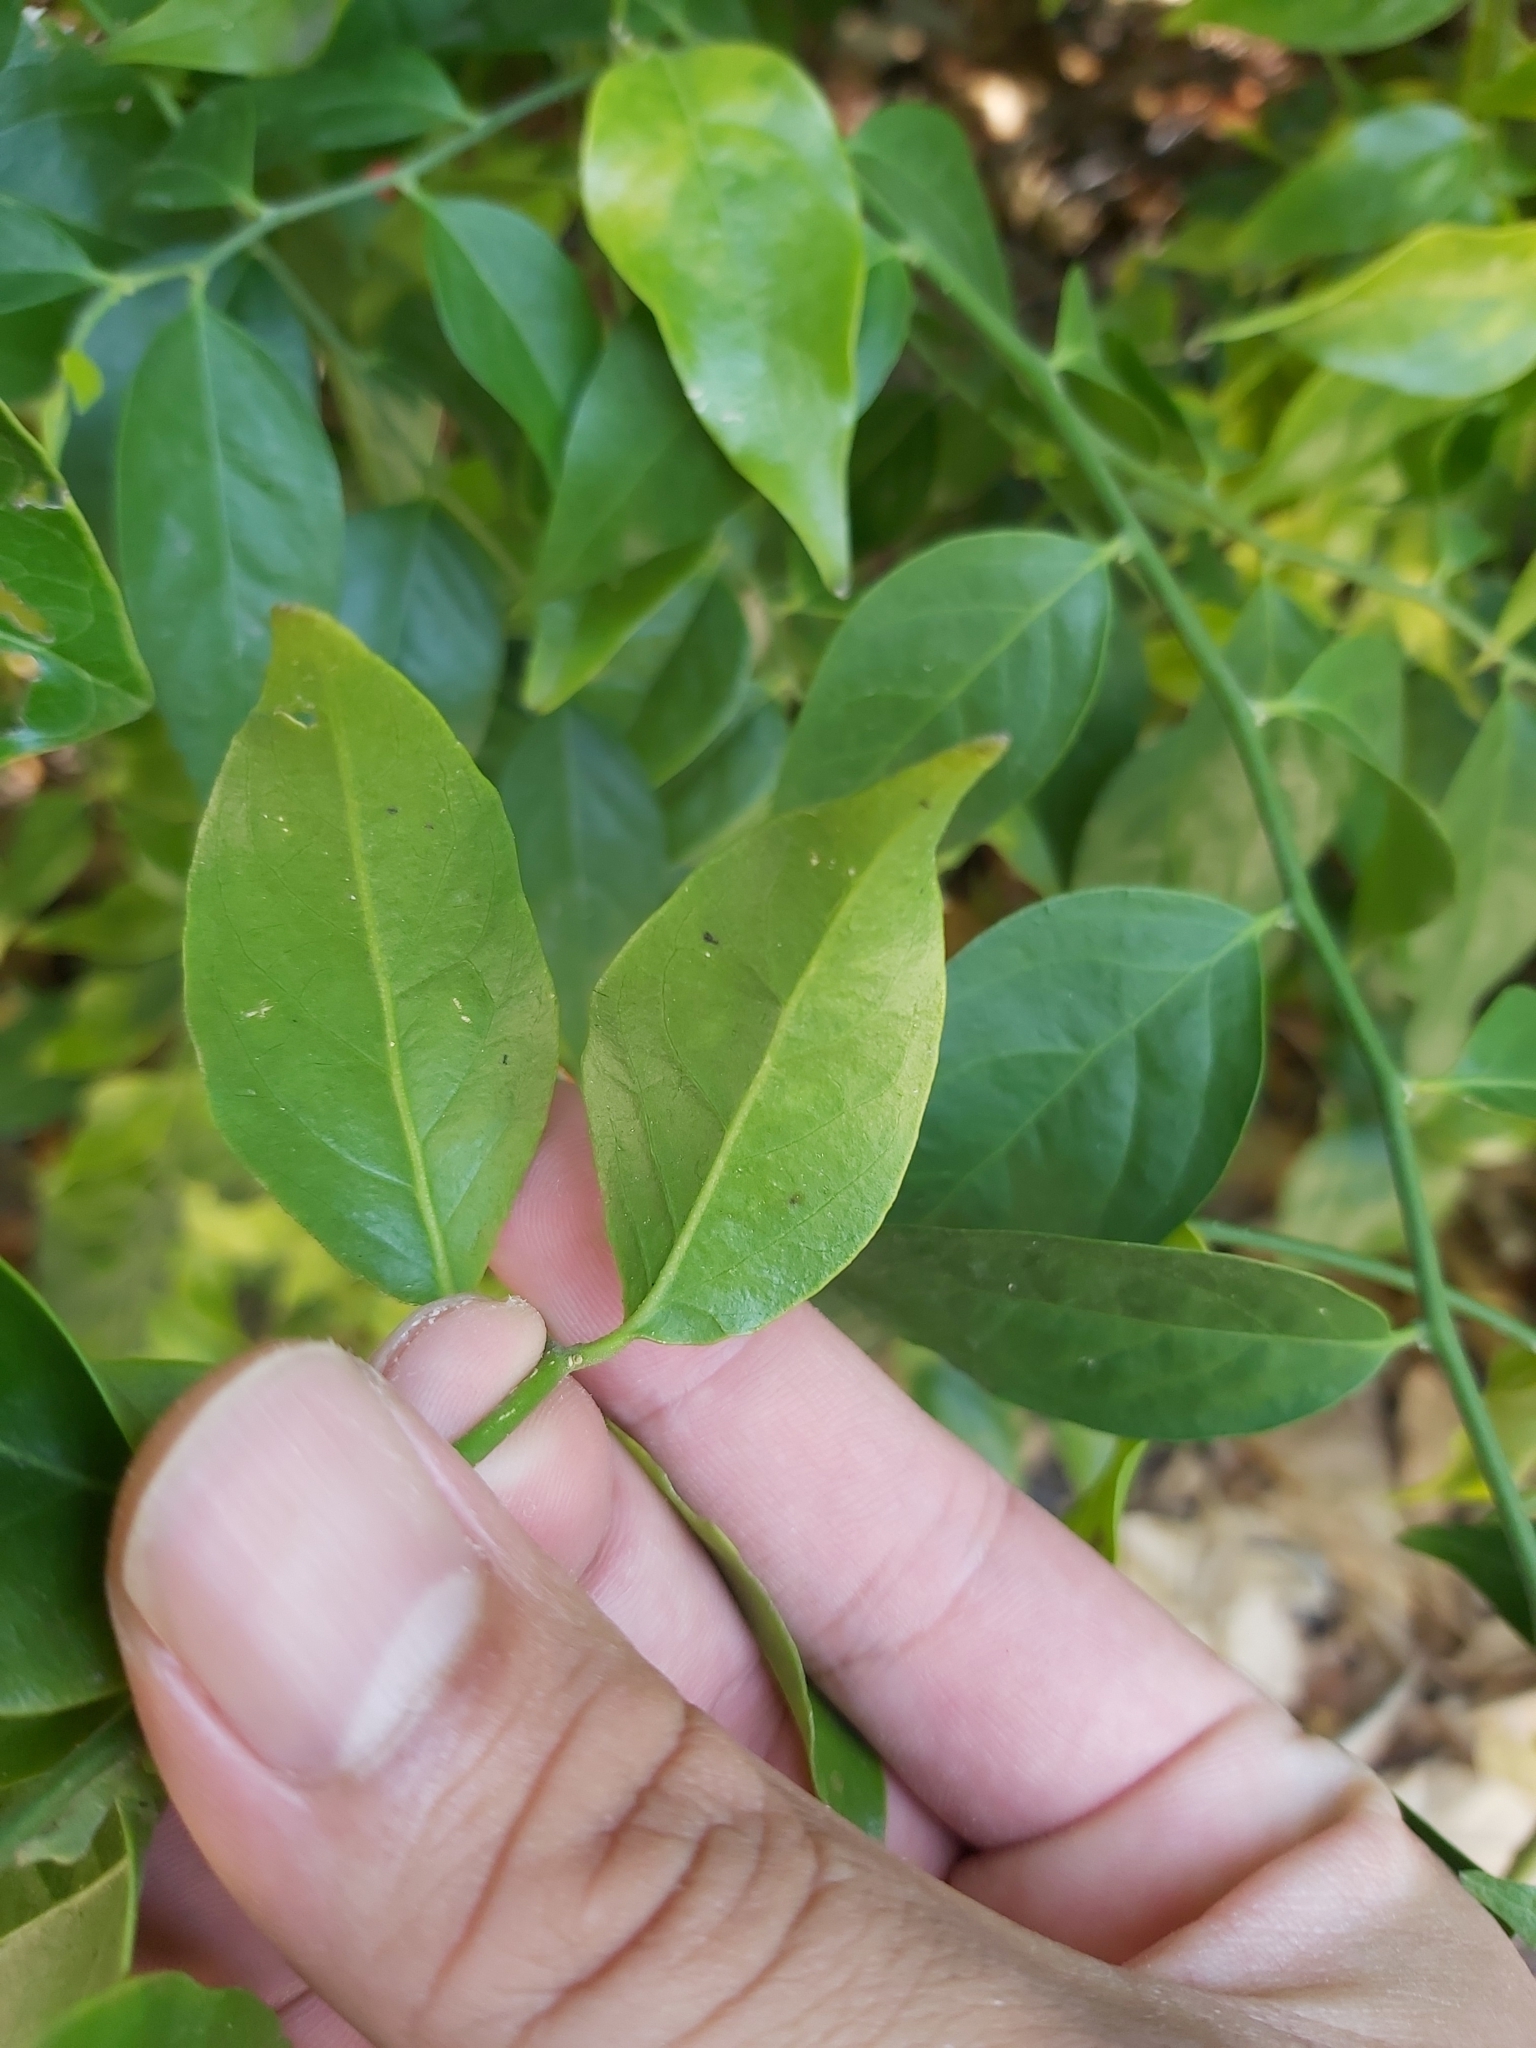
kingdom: Plantae
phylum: Tracheophyta
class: Magnoliopsida
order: Santalales
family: Opiliaceae
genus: Cansjera
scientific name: Cansjera leptostachya
